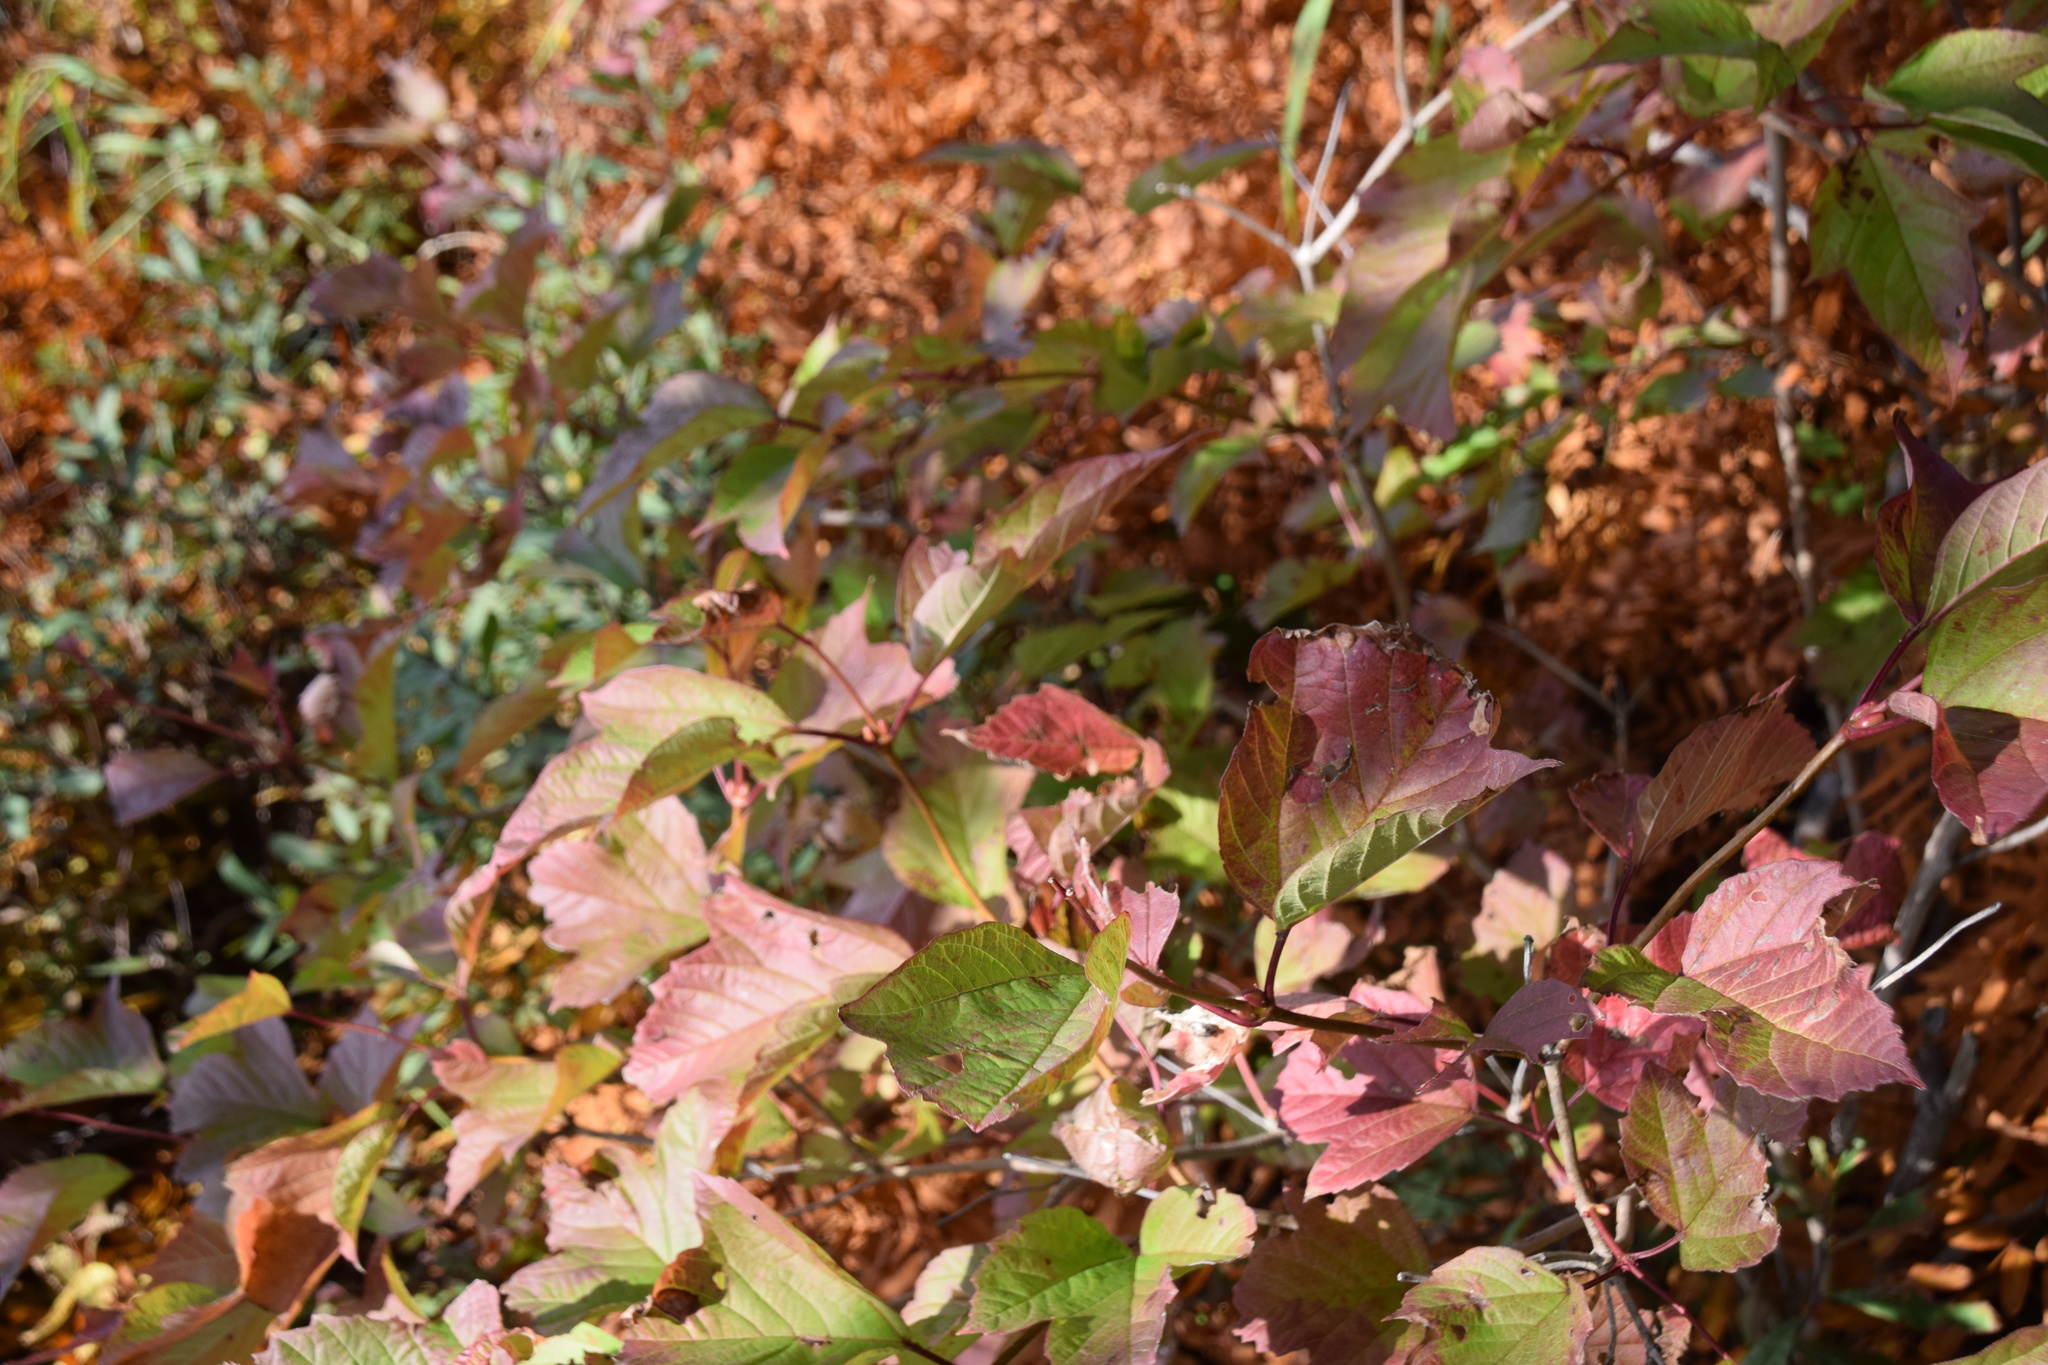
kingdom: Plantae
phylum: Tracheophyta
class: Magnoliopsida
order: Dipsacales
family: Viburnaceae
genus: Viburnum
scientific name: Viburnum trilobum
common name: American cranberrybush
